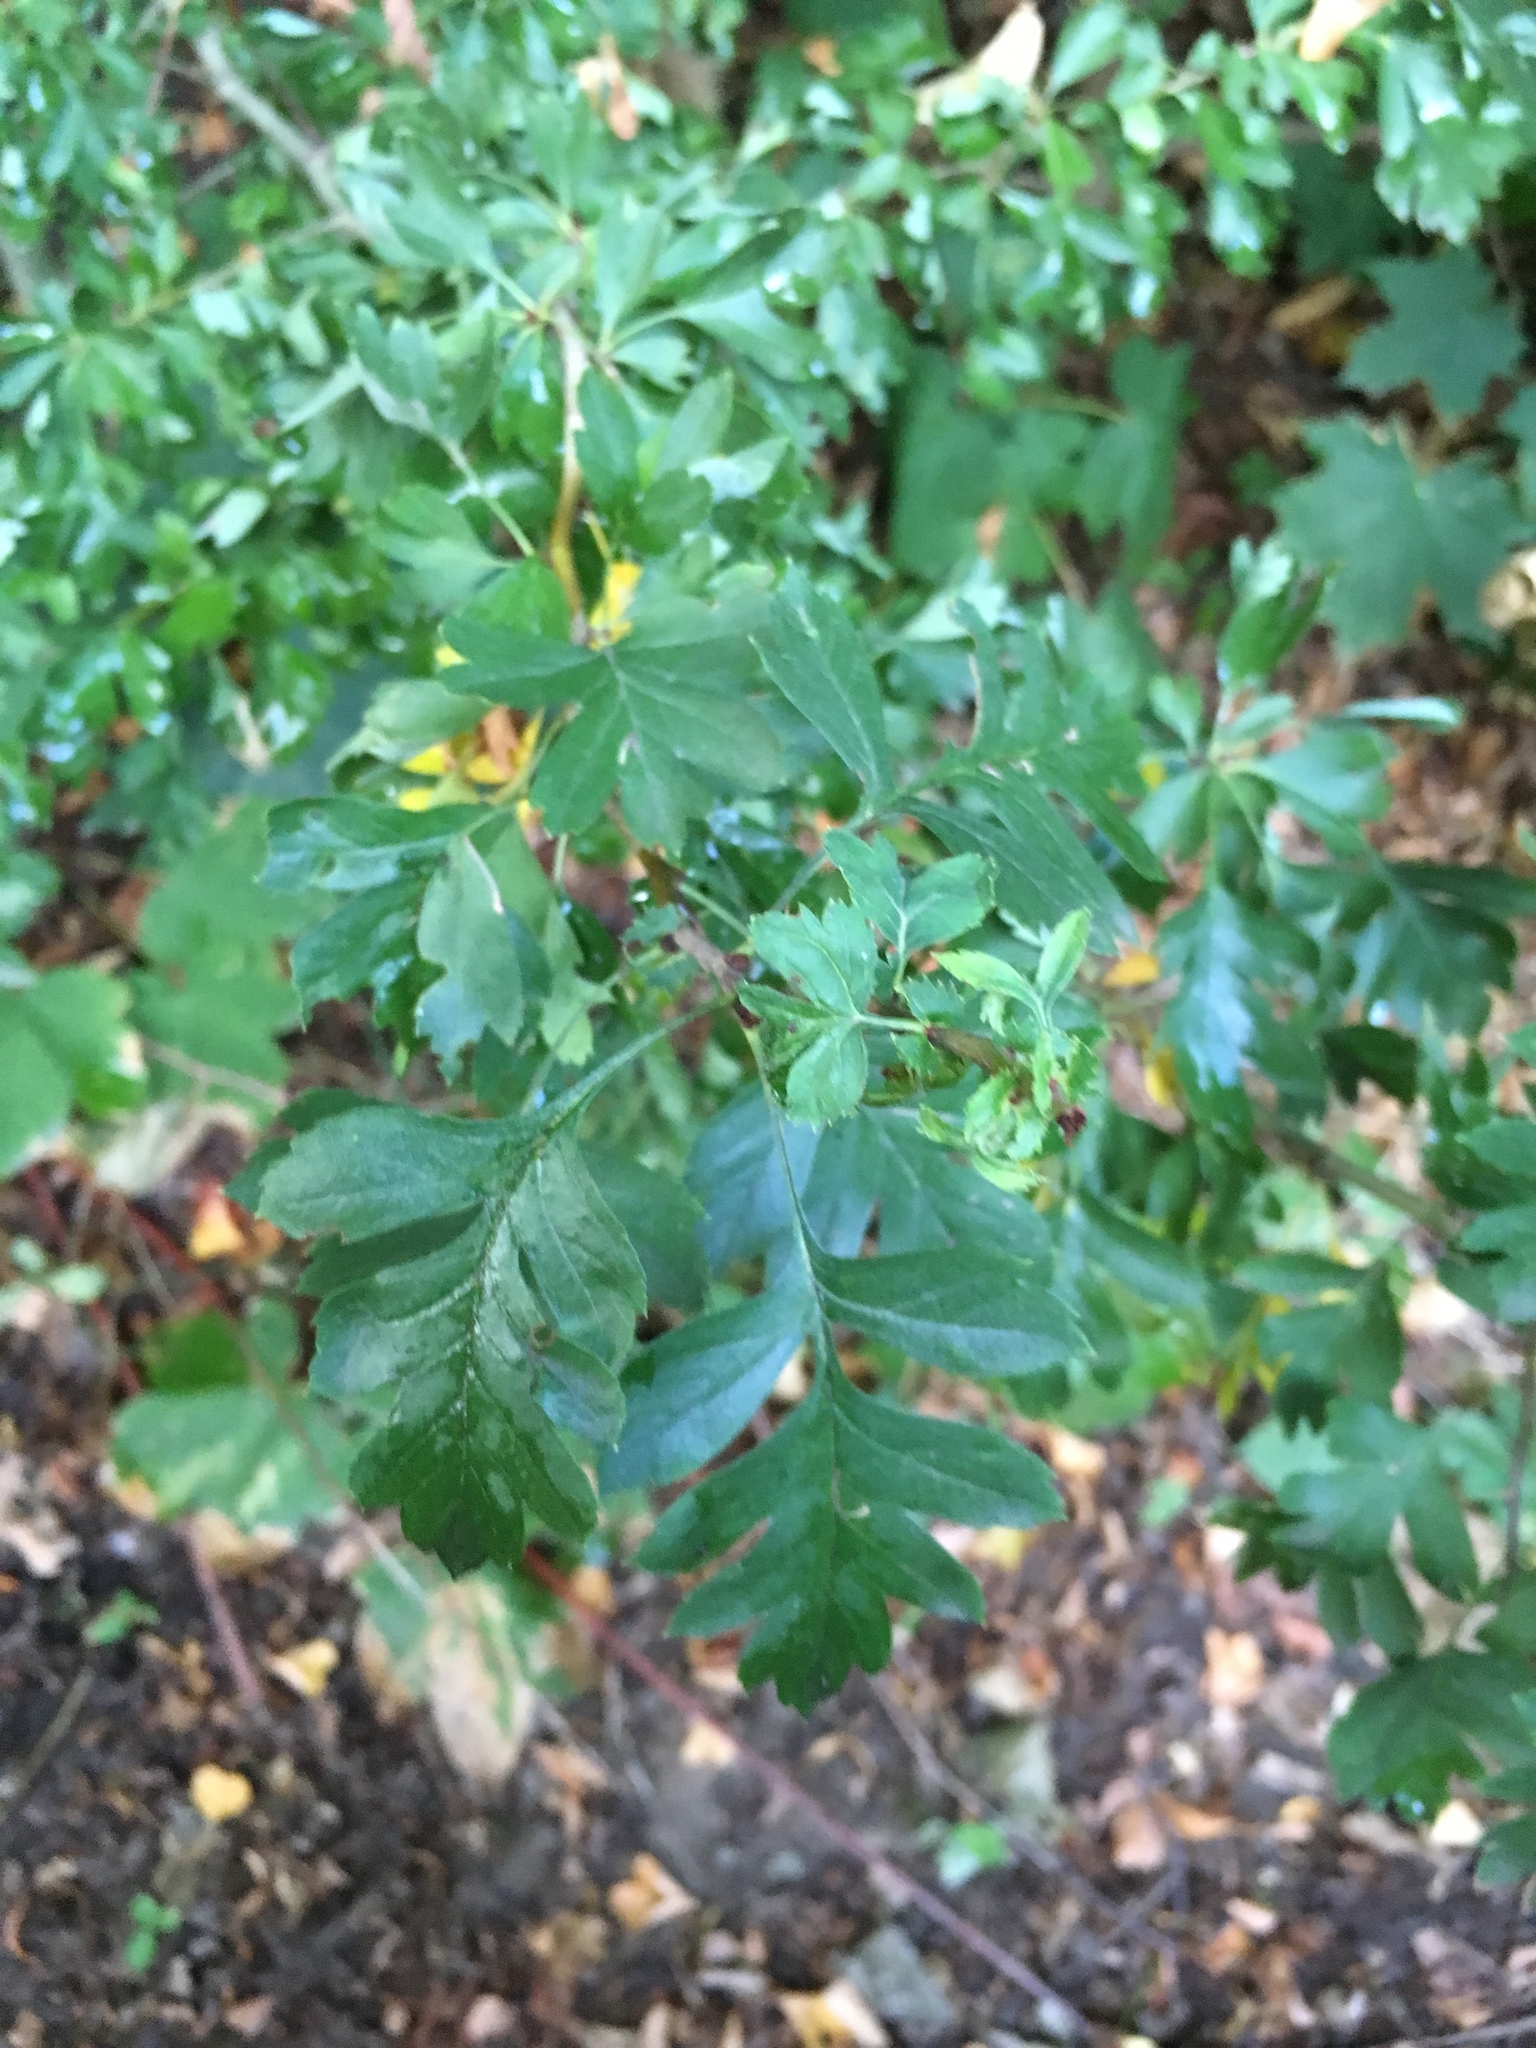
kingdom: Plantae
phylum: Tracheophyta
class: Magnoliopsida
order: Rosales
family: Rosaceae
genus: Crataegus
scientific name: Crataegus monogyna
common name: Hawthorn
